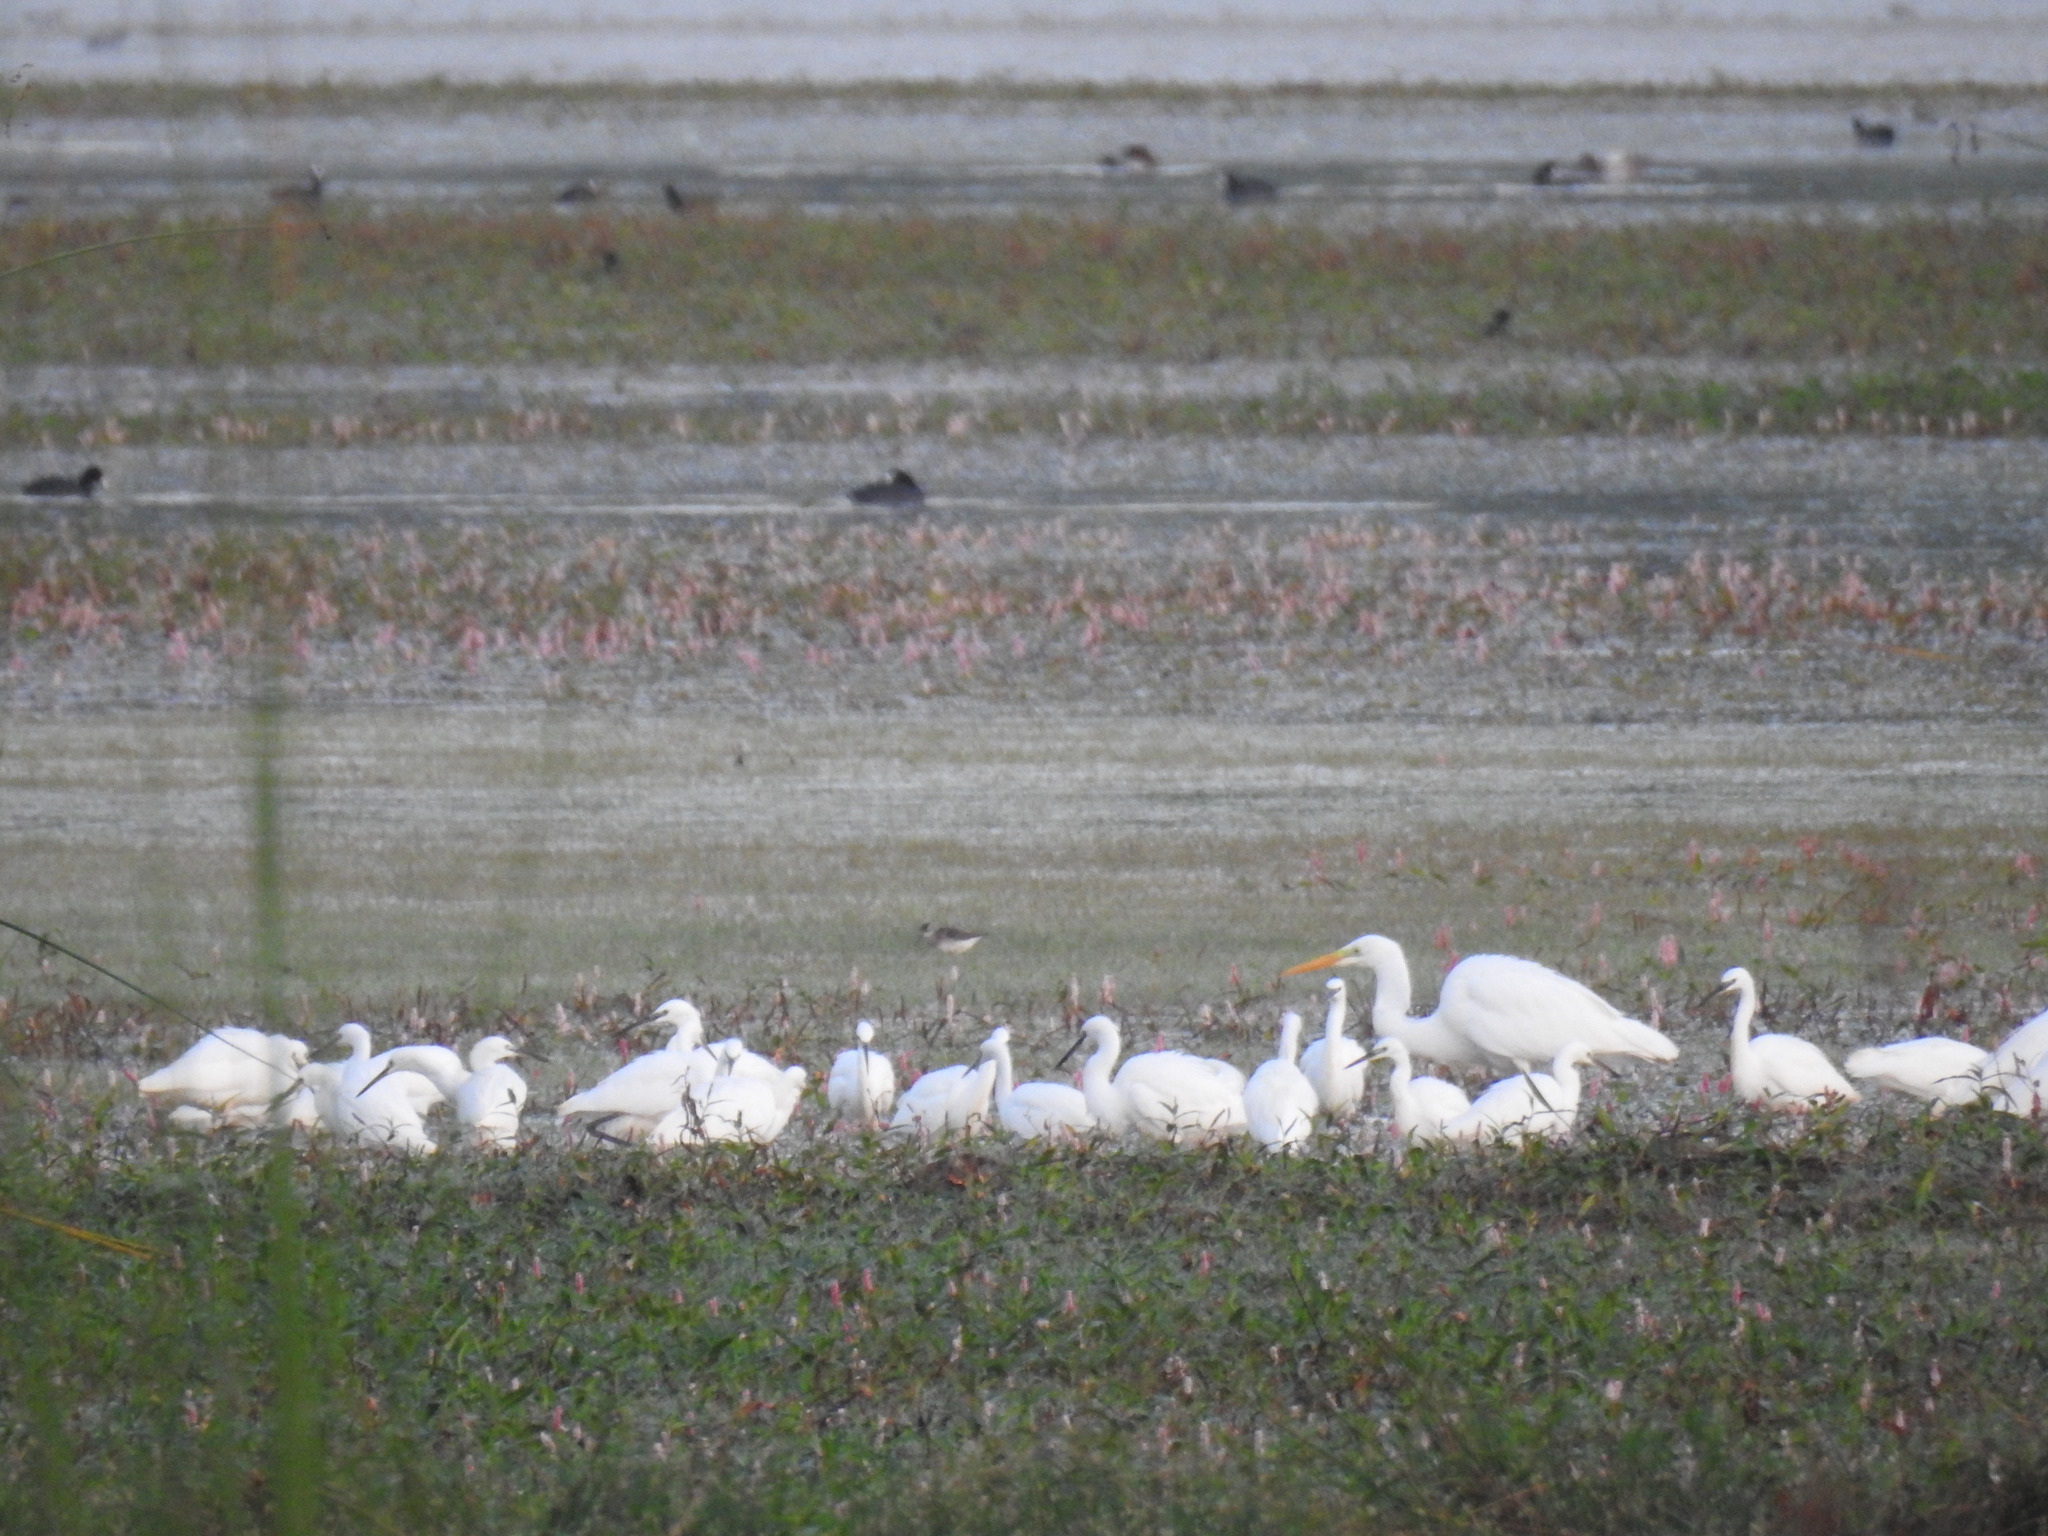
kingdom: Animalia
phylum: Chordata
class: Aves
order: Pelecaniformes
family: Ardeidae
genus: Ardea
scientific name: Ardea alba
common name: Great egret
